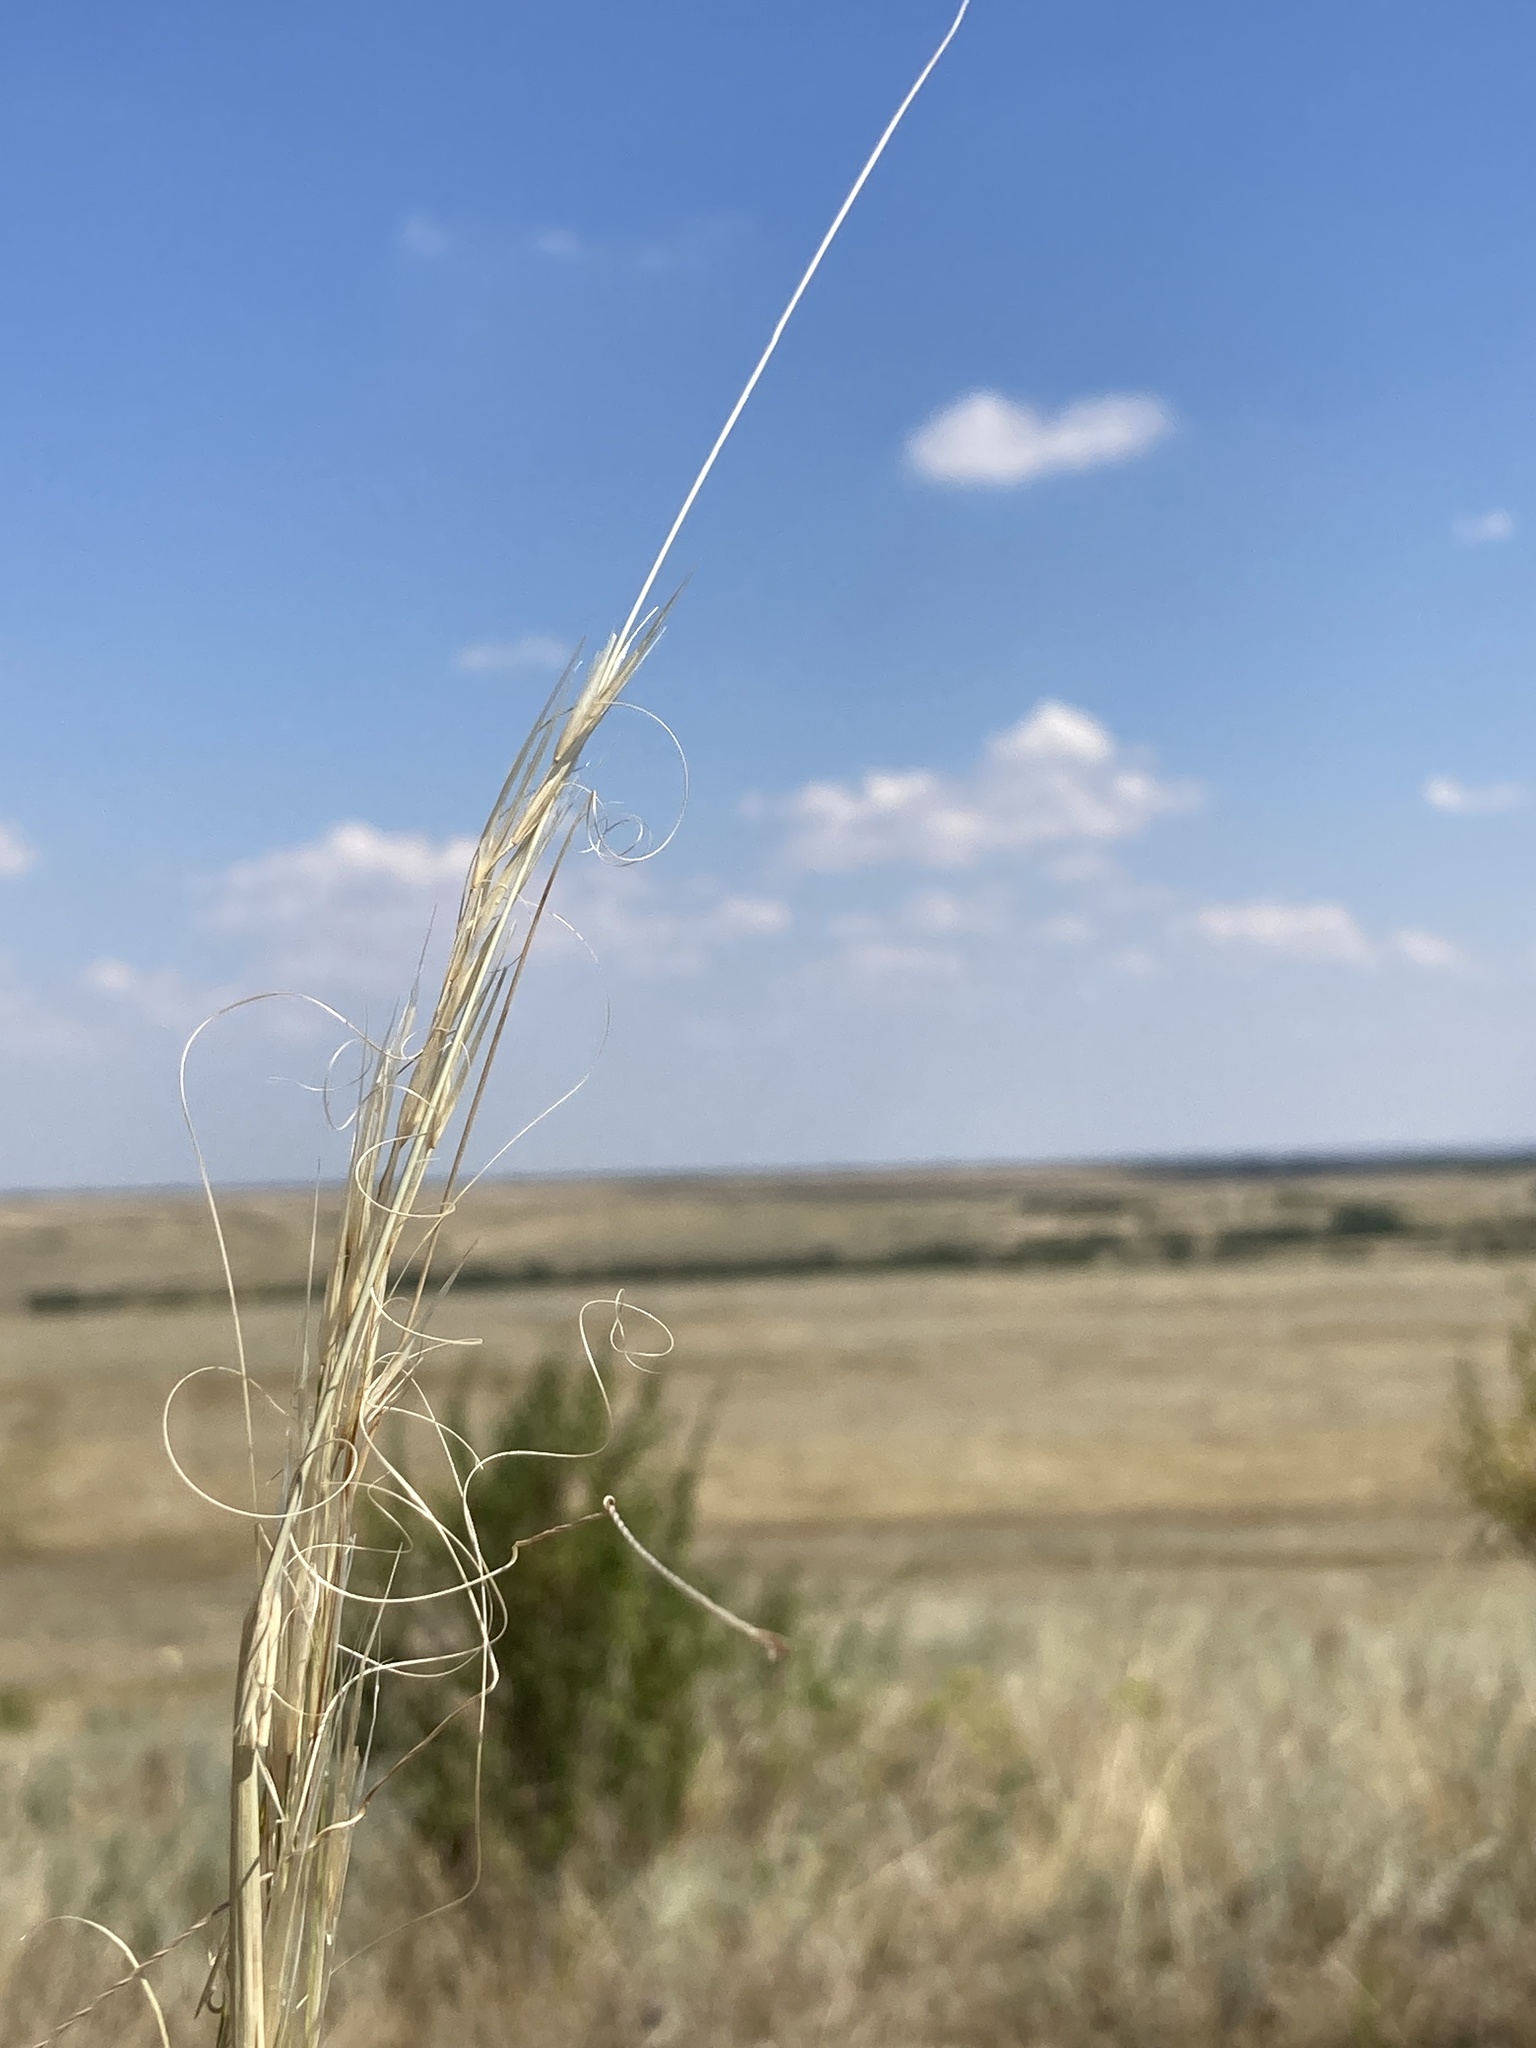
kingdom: Plantae
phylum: Tracheophyta
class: Liliopsida
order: Poales
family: Poaceae
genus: Stipa
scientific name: Stipa capillata
